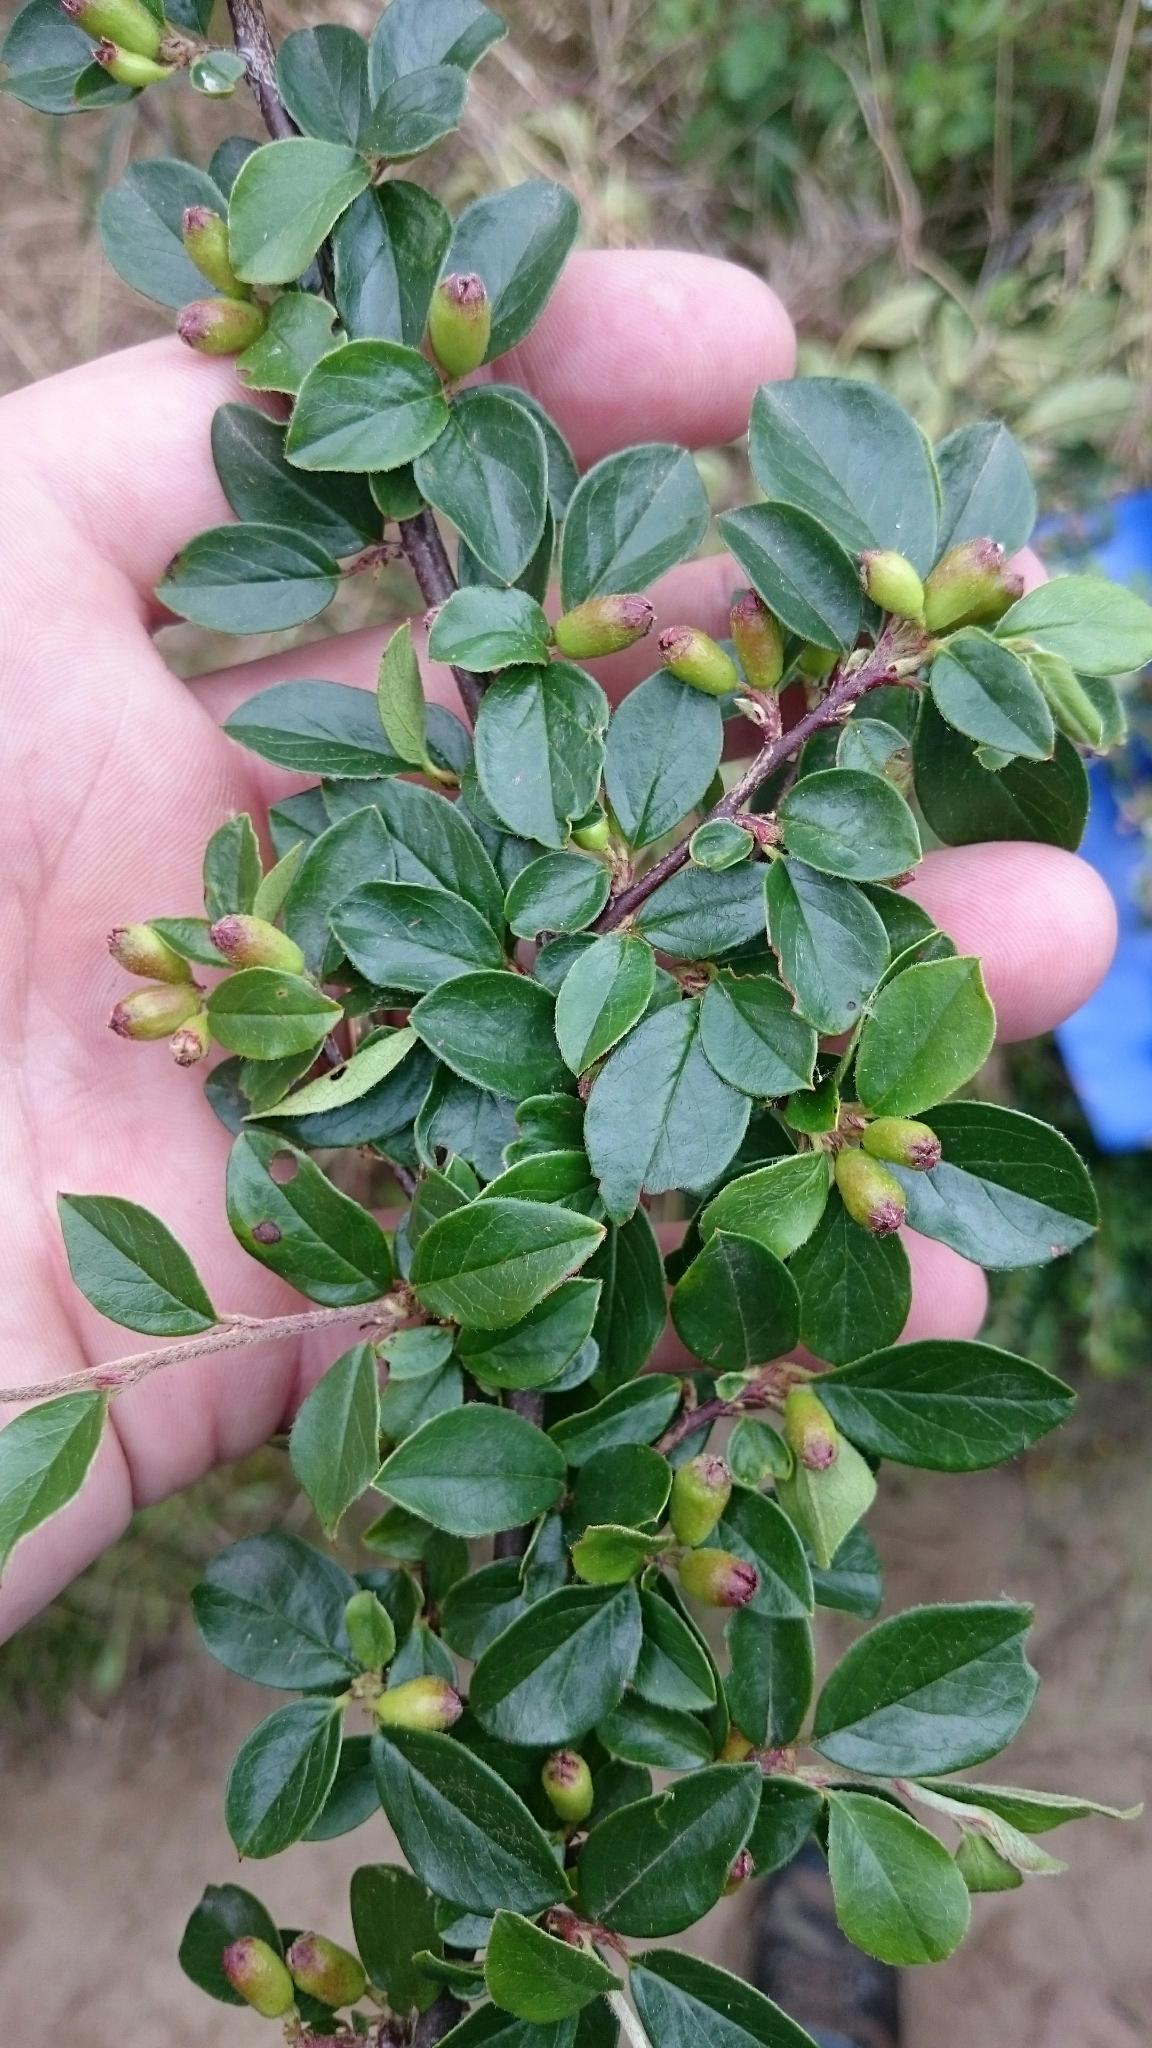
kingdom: Plantae
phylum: Tracheophyta
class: Magnoliopsida
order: Rosales
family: Rosaceae
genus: Cotoneaster
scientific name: Cotoneaster divaricatus
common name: Spreading cotoneaster
